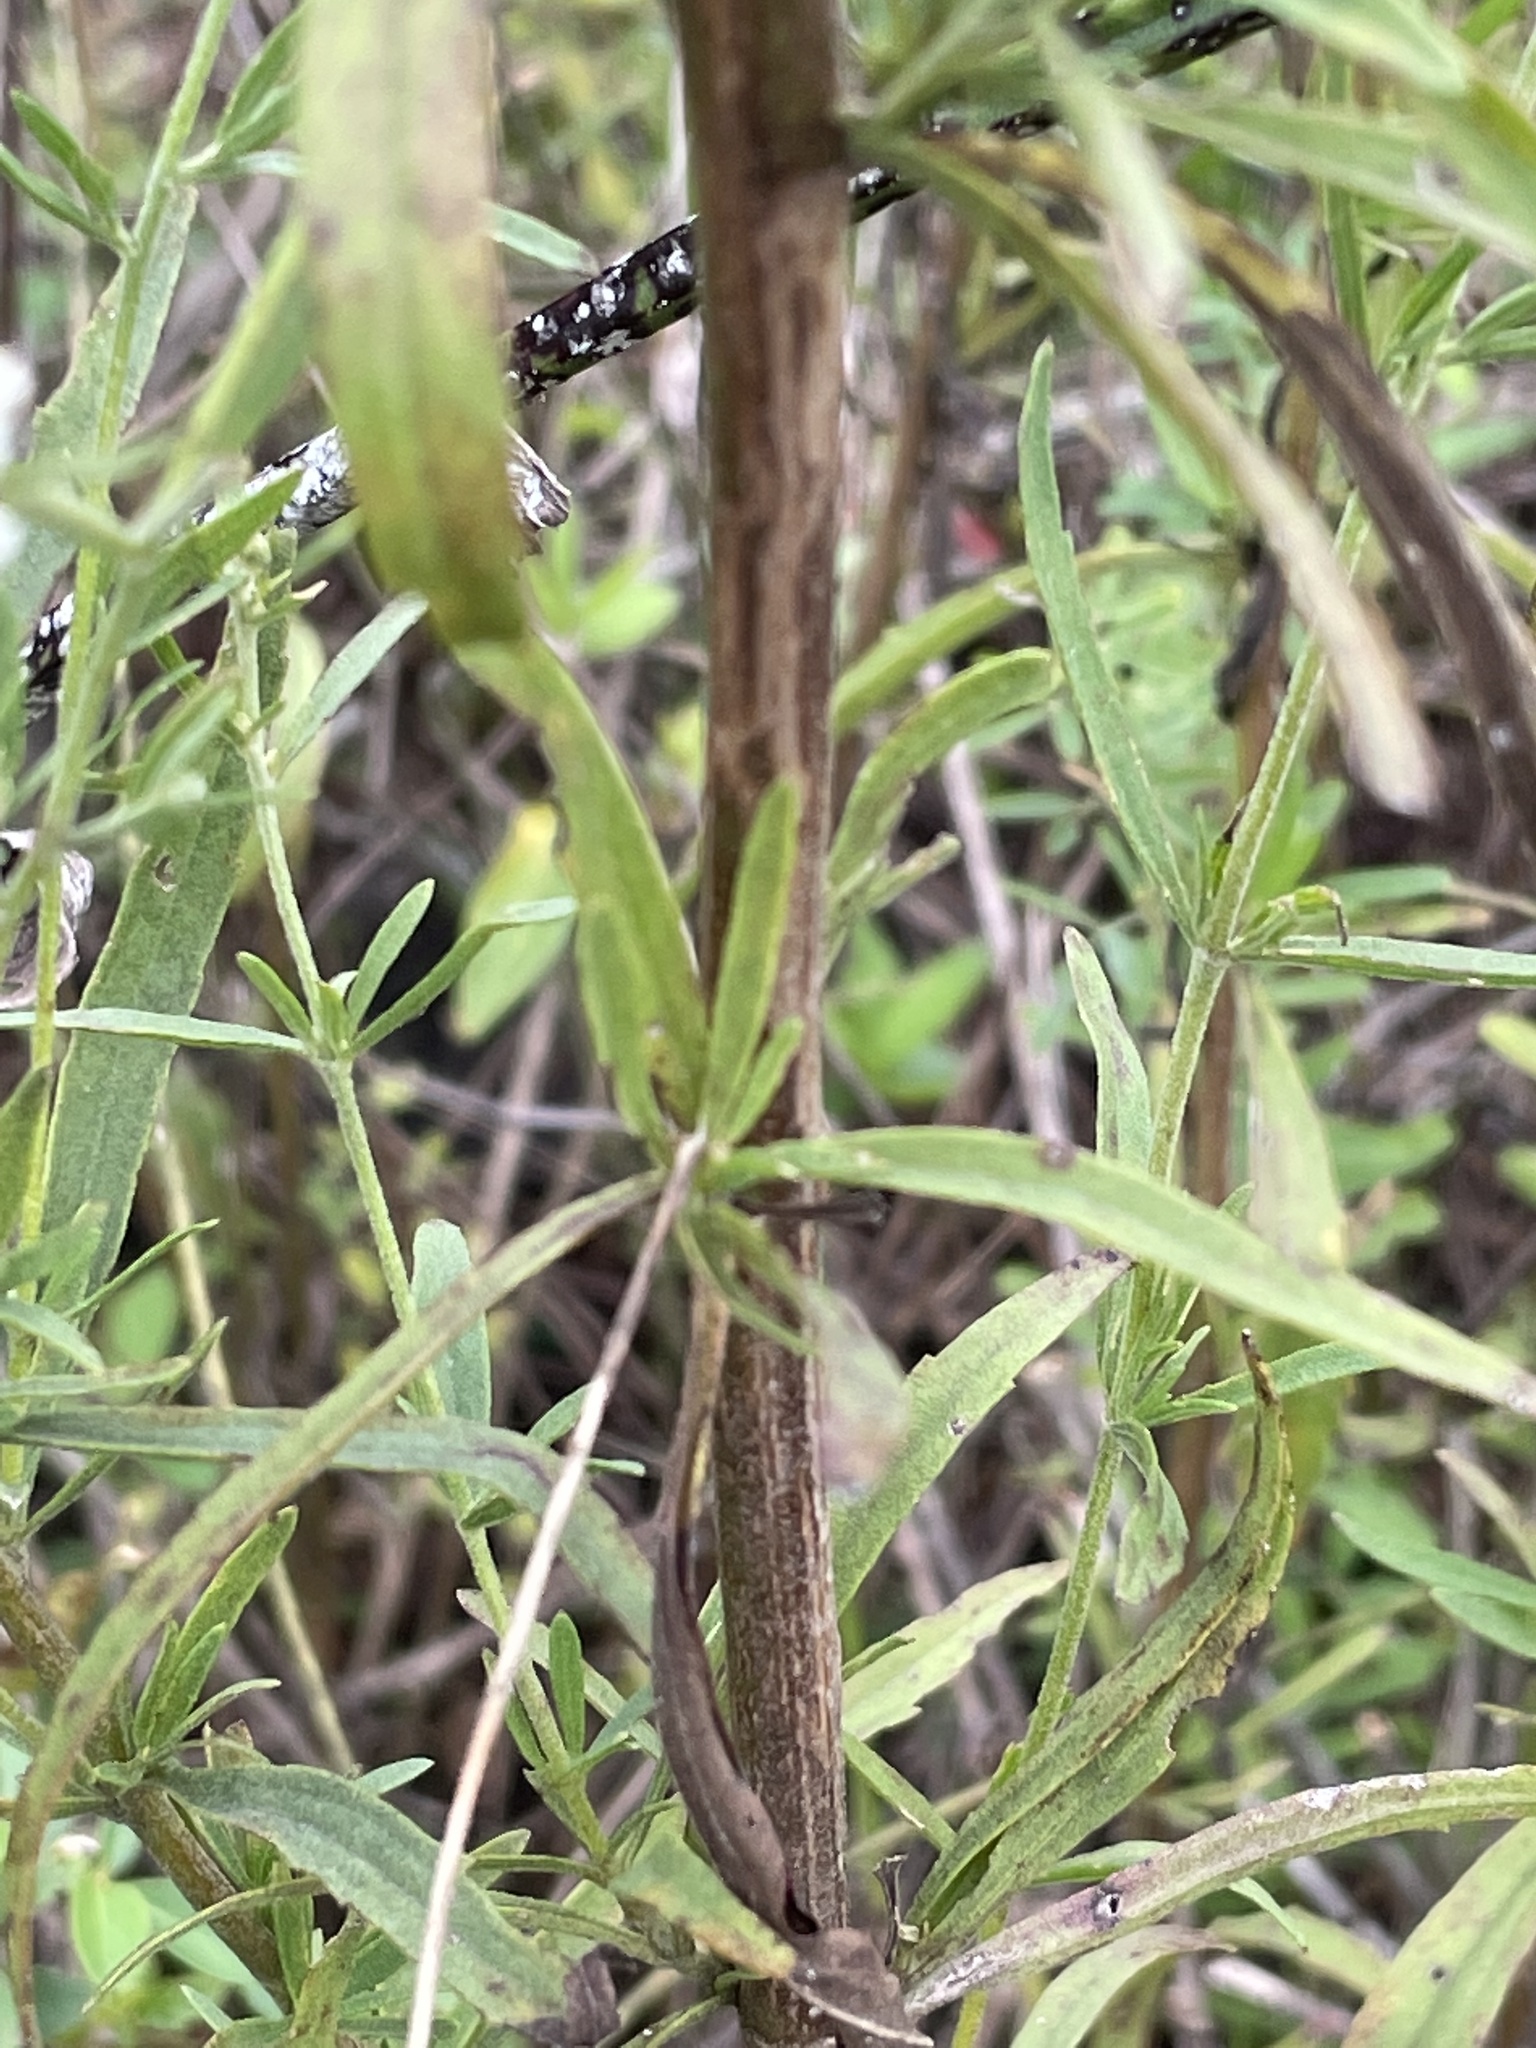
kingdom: Plantae
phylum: Tracheophyta
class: Magnoliopsida
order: Asterales
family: Asteraceae
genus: Eupatorium
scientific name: Eupatorium torreyanum
